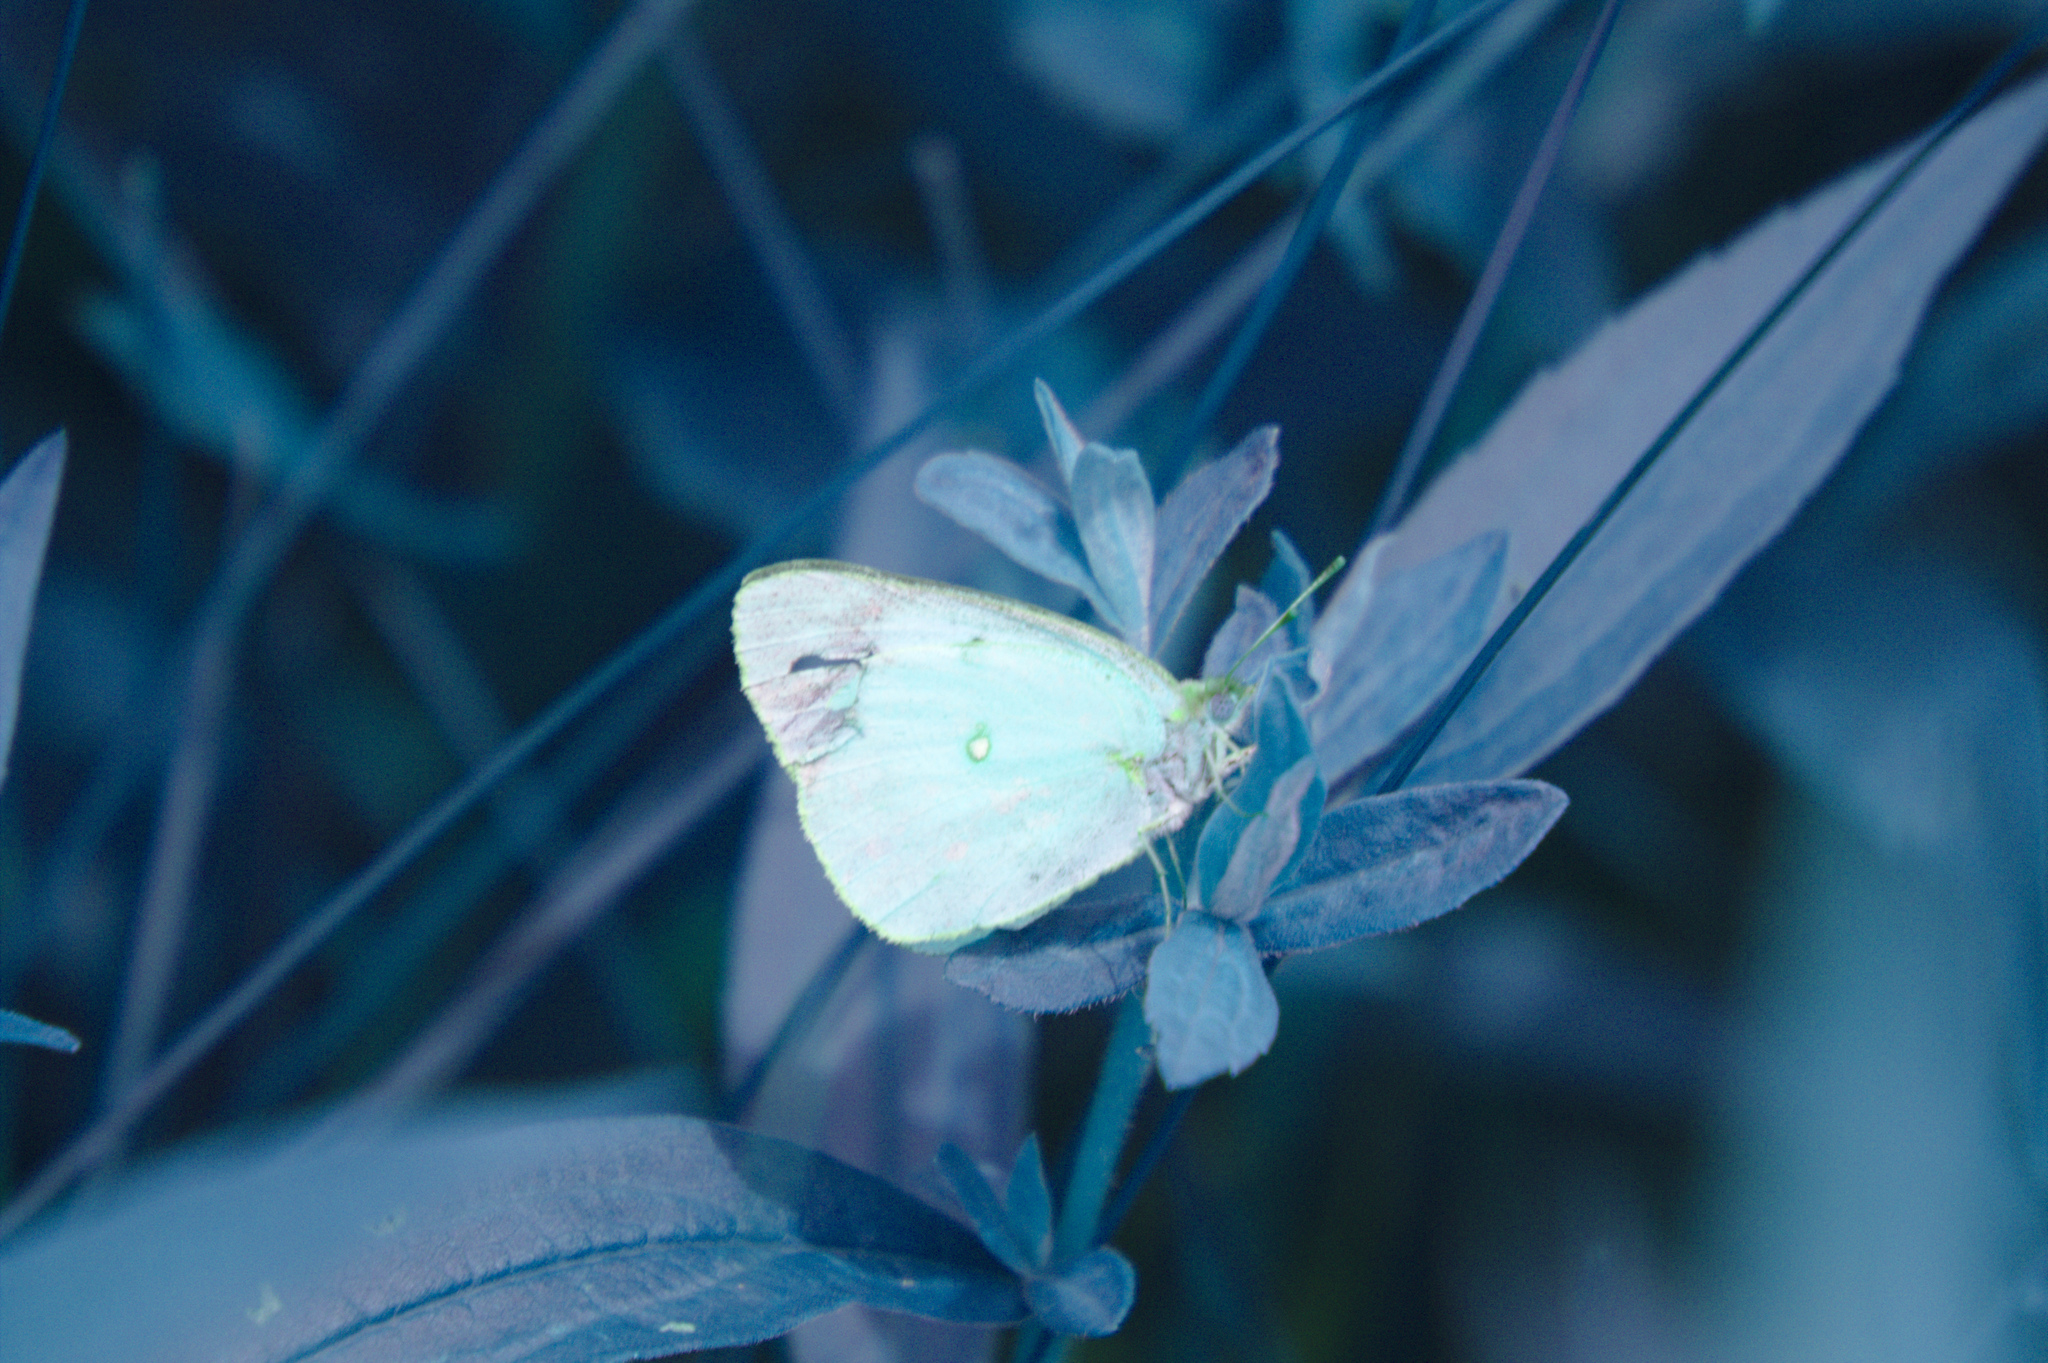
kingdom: Animalia
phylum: Arthropoda
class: Insecta
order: Lepidoptera
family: Pieridae
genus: Colias
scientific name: Colias philodice
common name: Clouded sulphur
